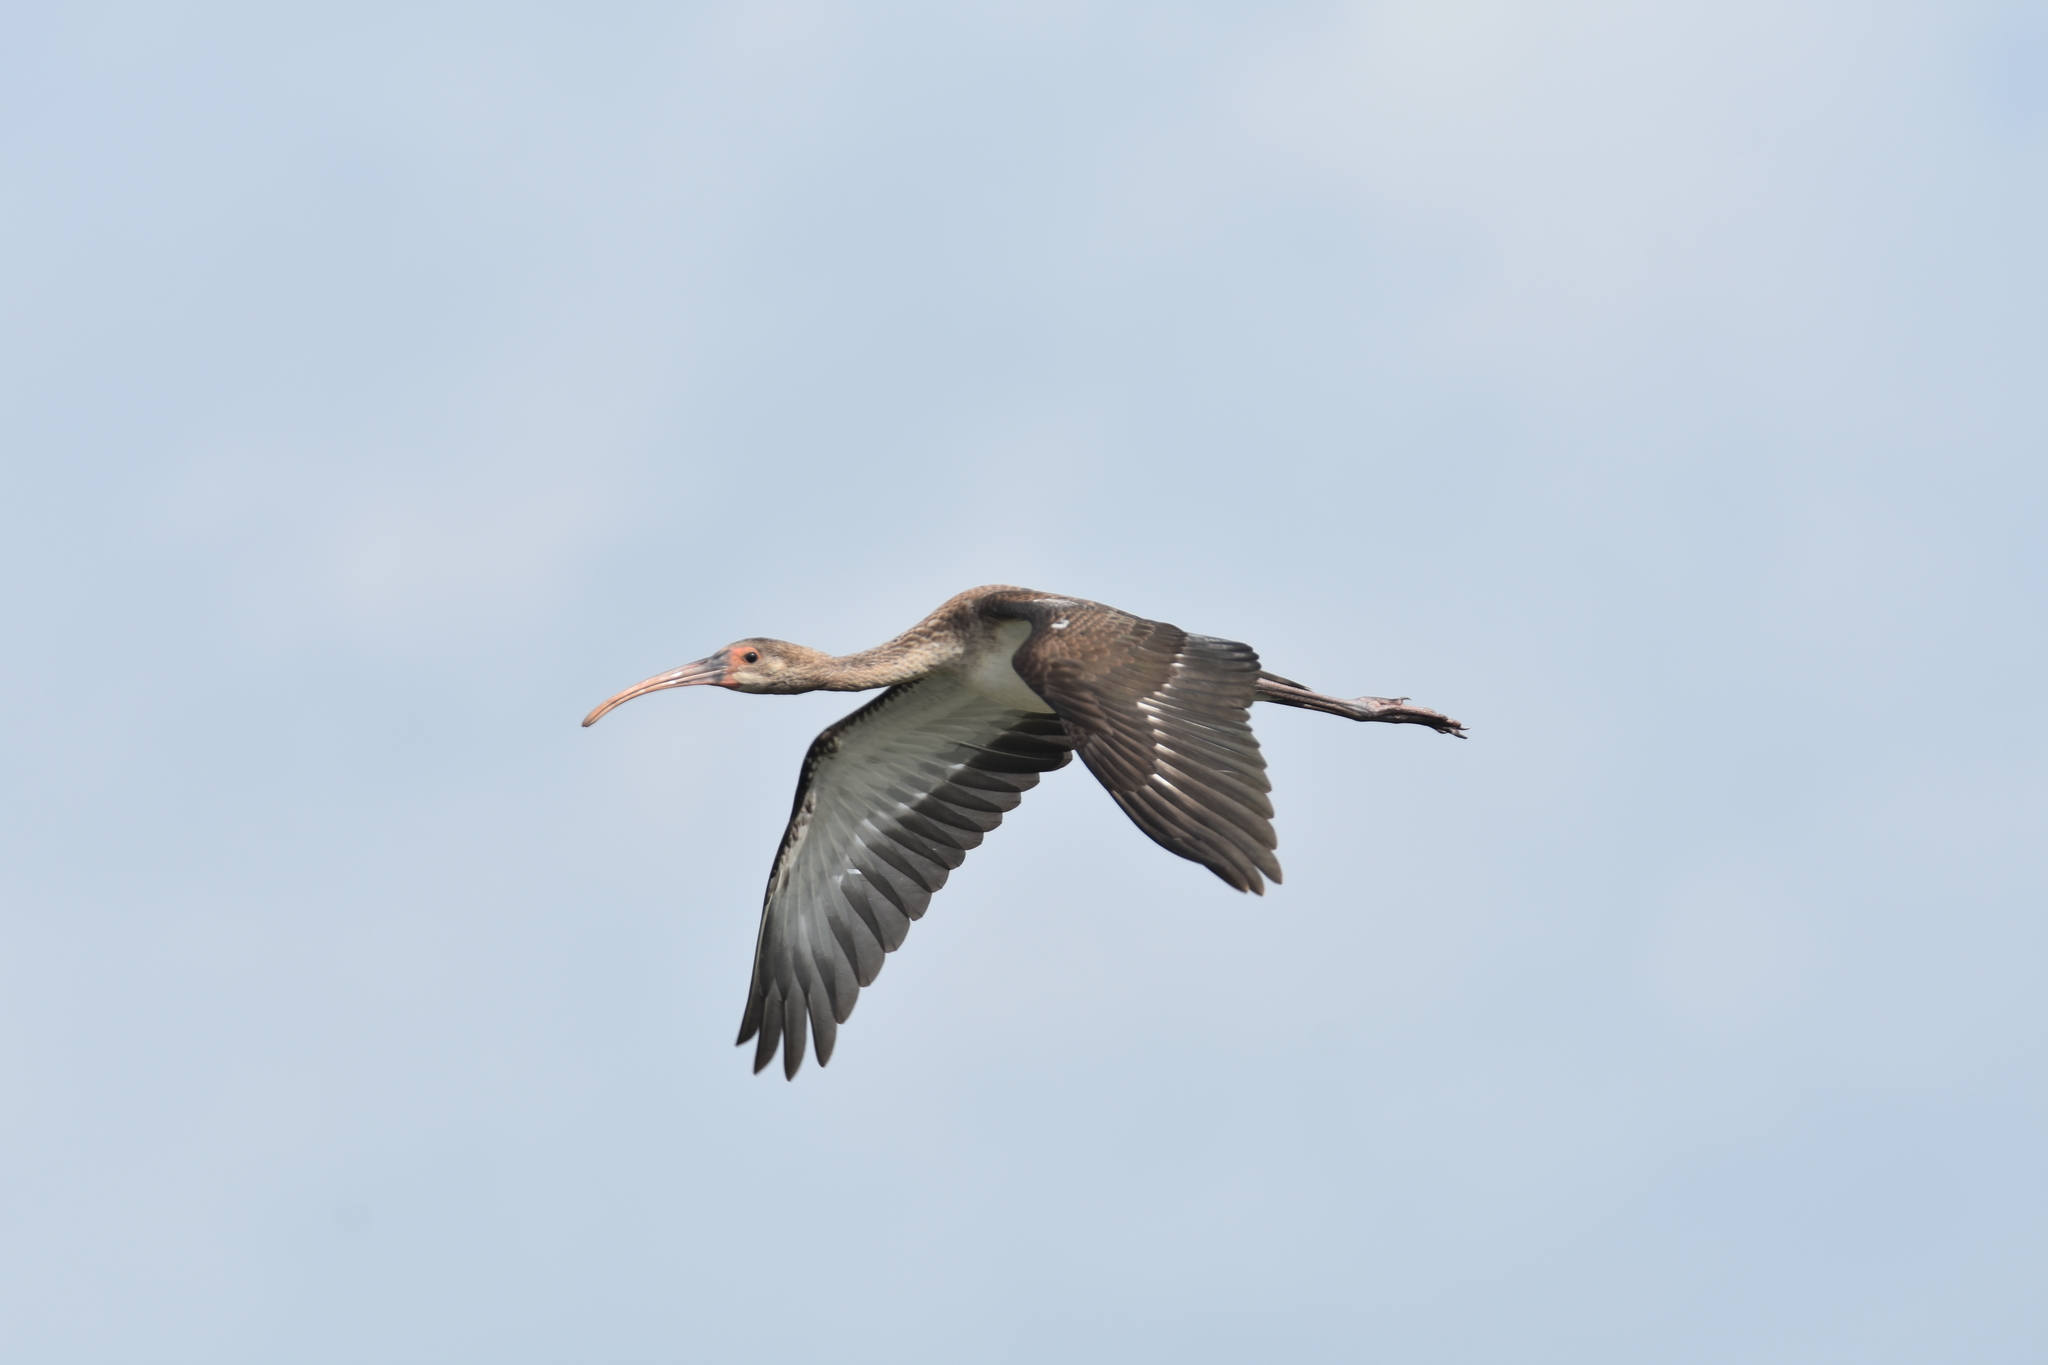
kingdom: Animalia
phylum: Chordata
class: Aves
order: Pelecaniformes
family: Threskiornithidae
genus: Eudocimus
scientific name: Eudocimus albus
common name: White ibis
